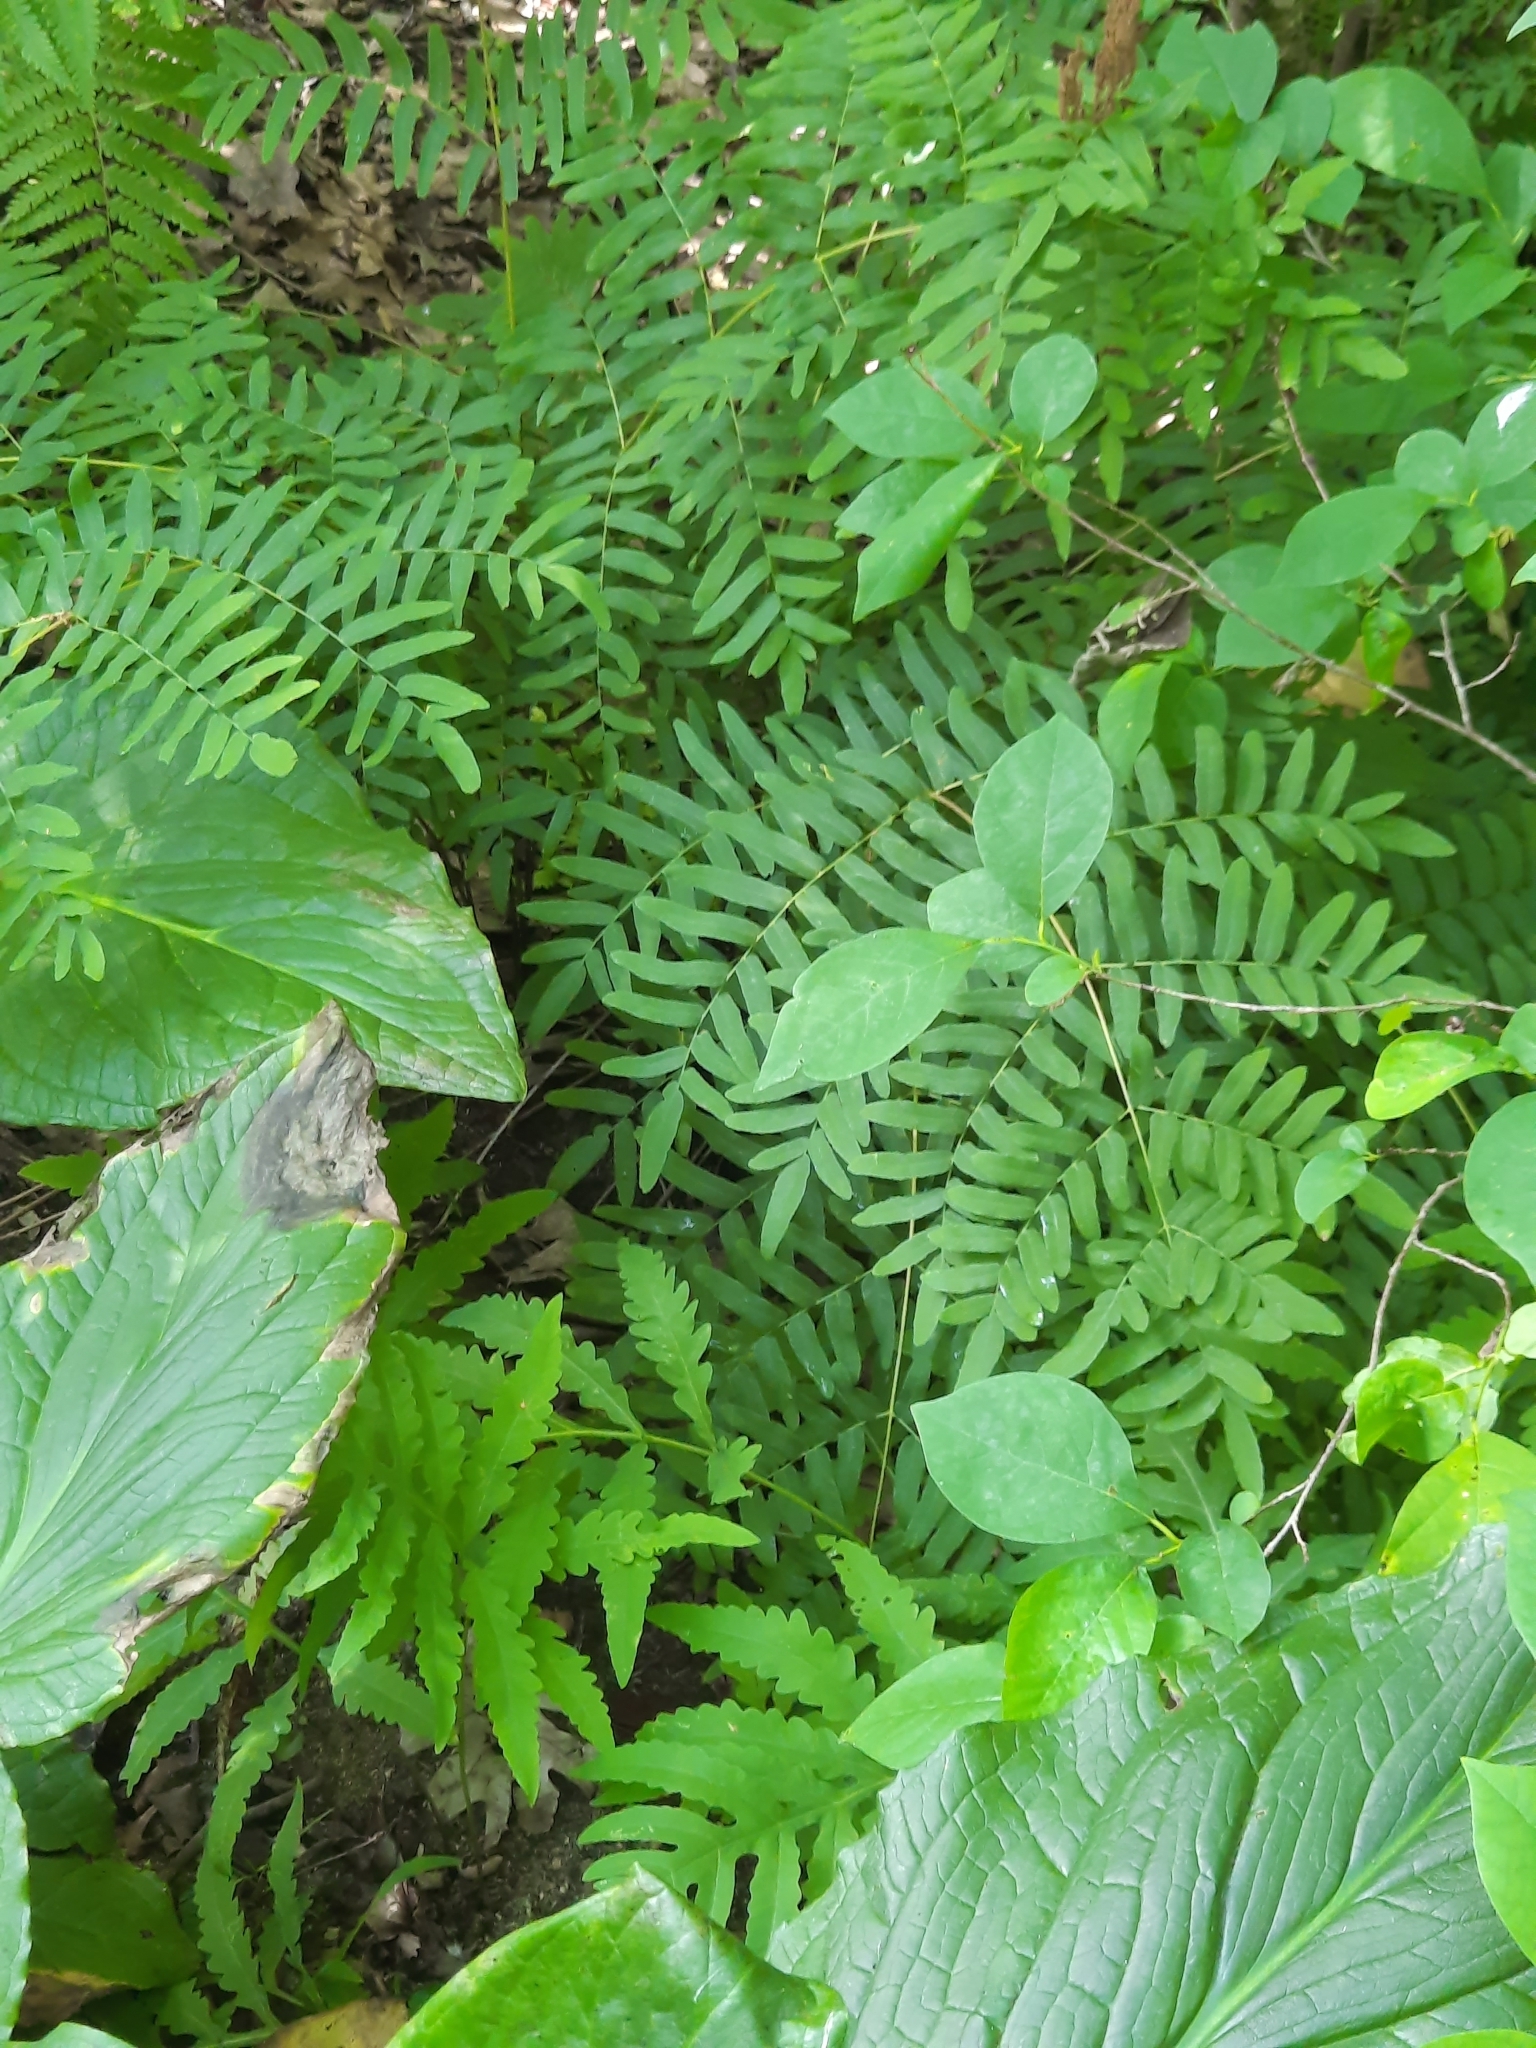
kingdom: Plantae
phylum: Tracheophyta
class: Polypodiopsida
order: Osmundales
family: Osmundaceae
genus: Osmunda
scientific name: Osmunda spectabilis
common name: American royal fern
